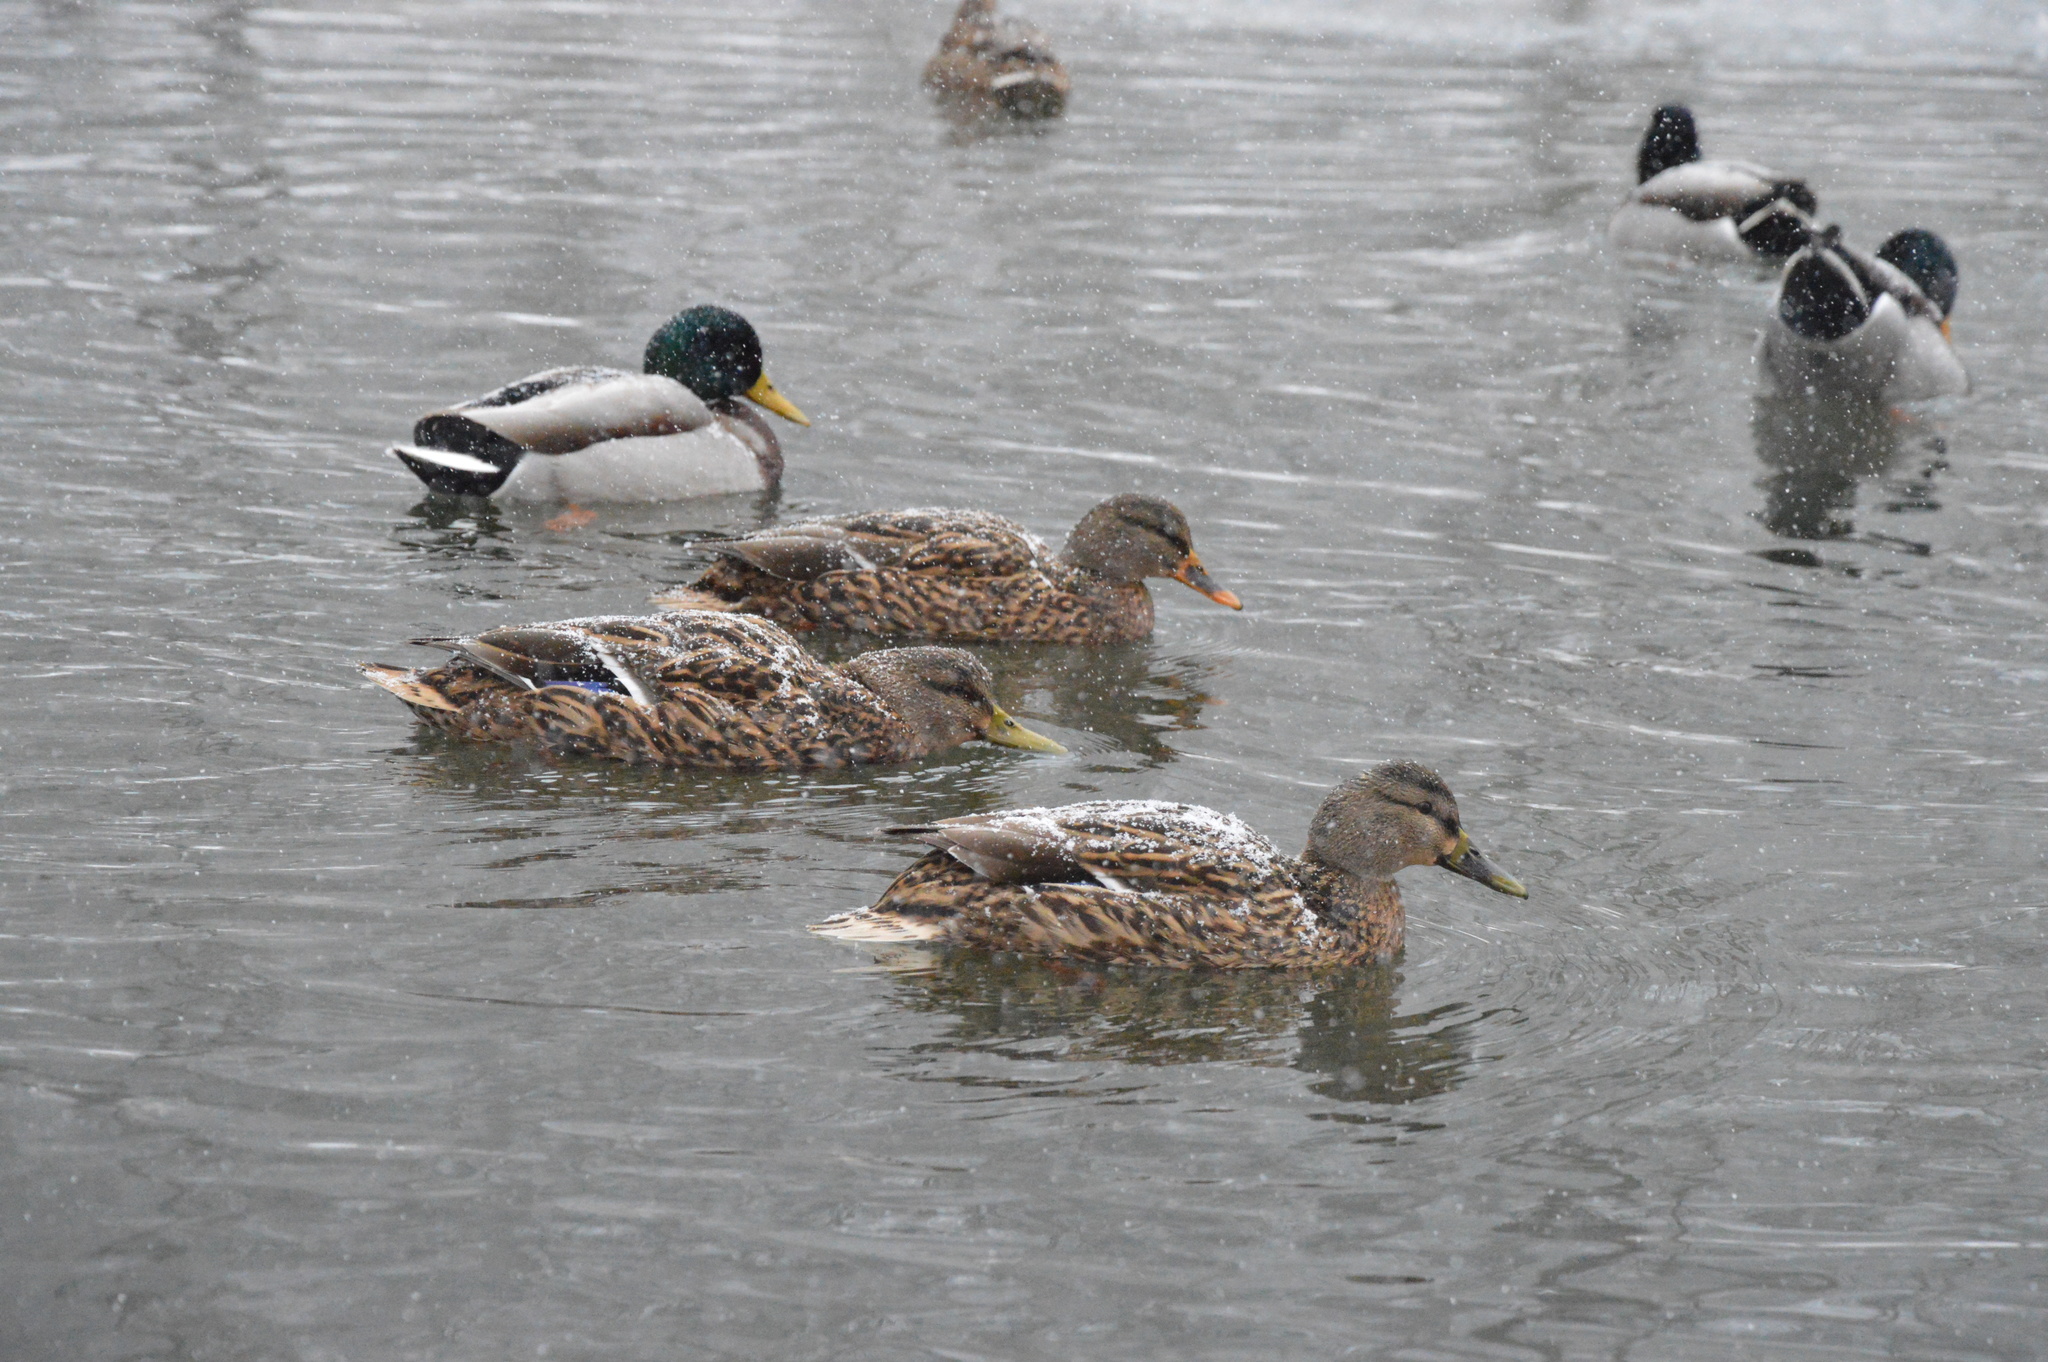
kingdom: Animalia
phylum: Chordata
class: Aves
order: Anseriformes
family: Anatidae
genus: Anas
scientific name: Anas platyrhynchos
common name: Mallard
